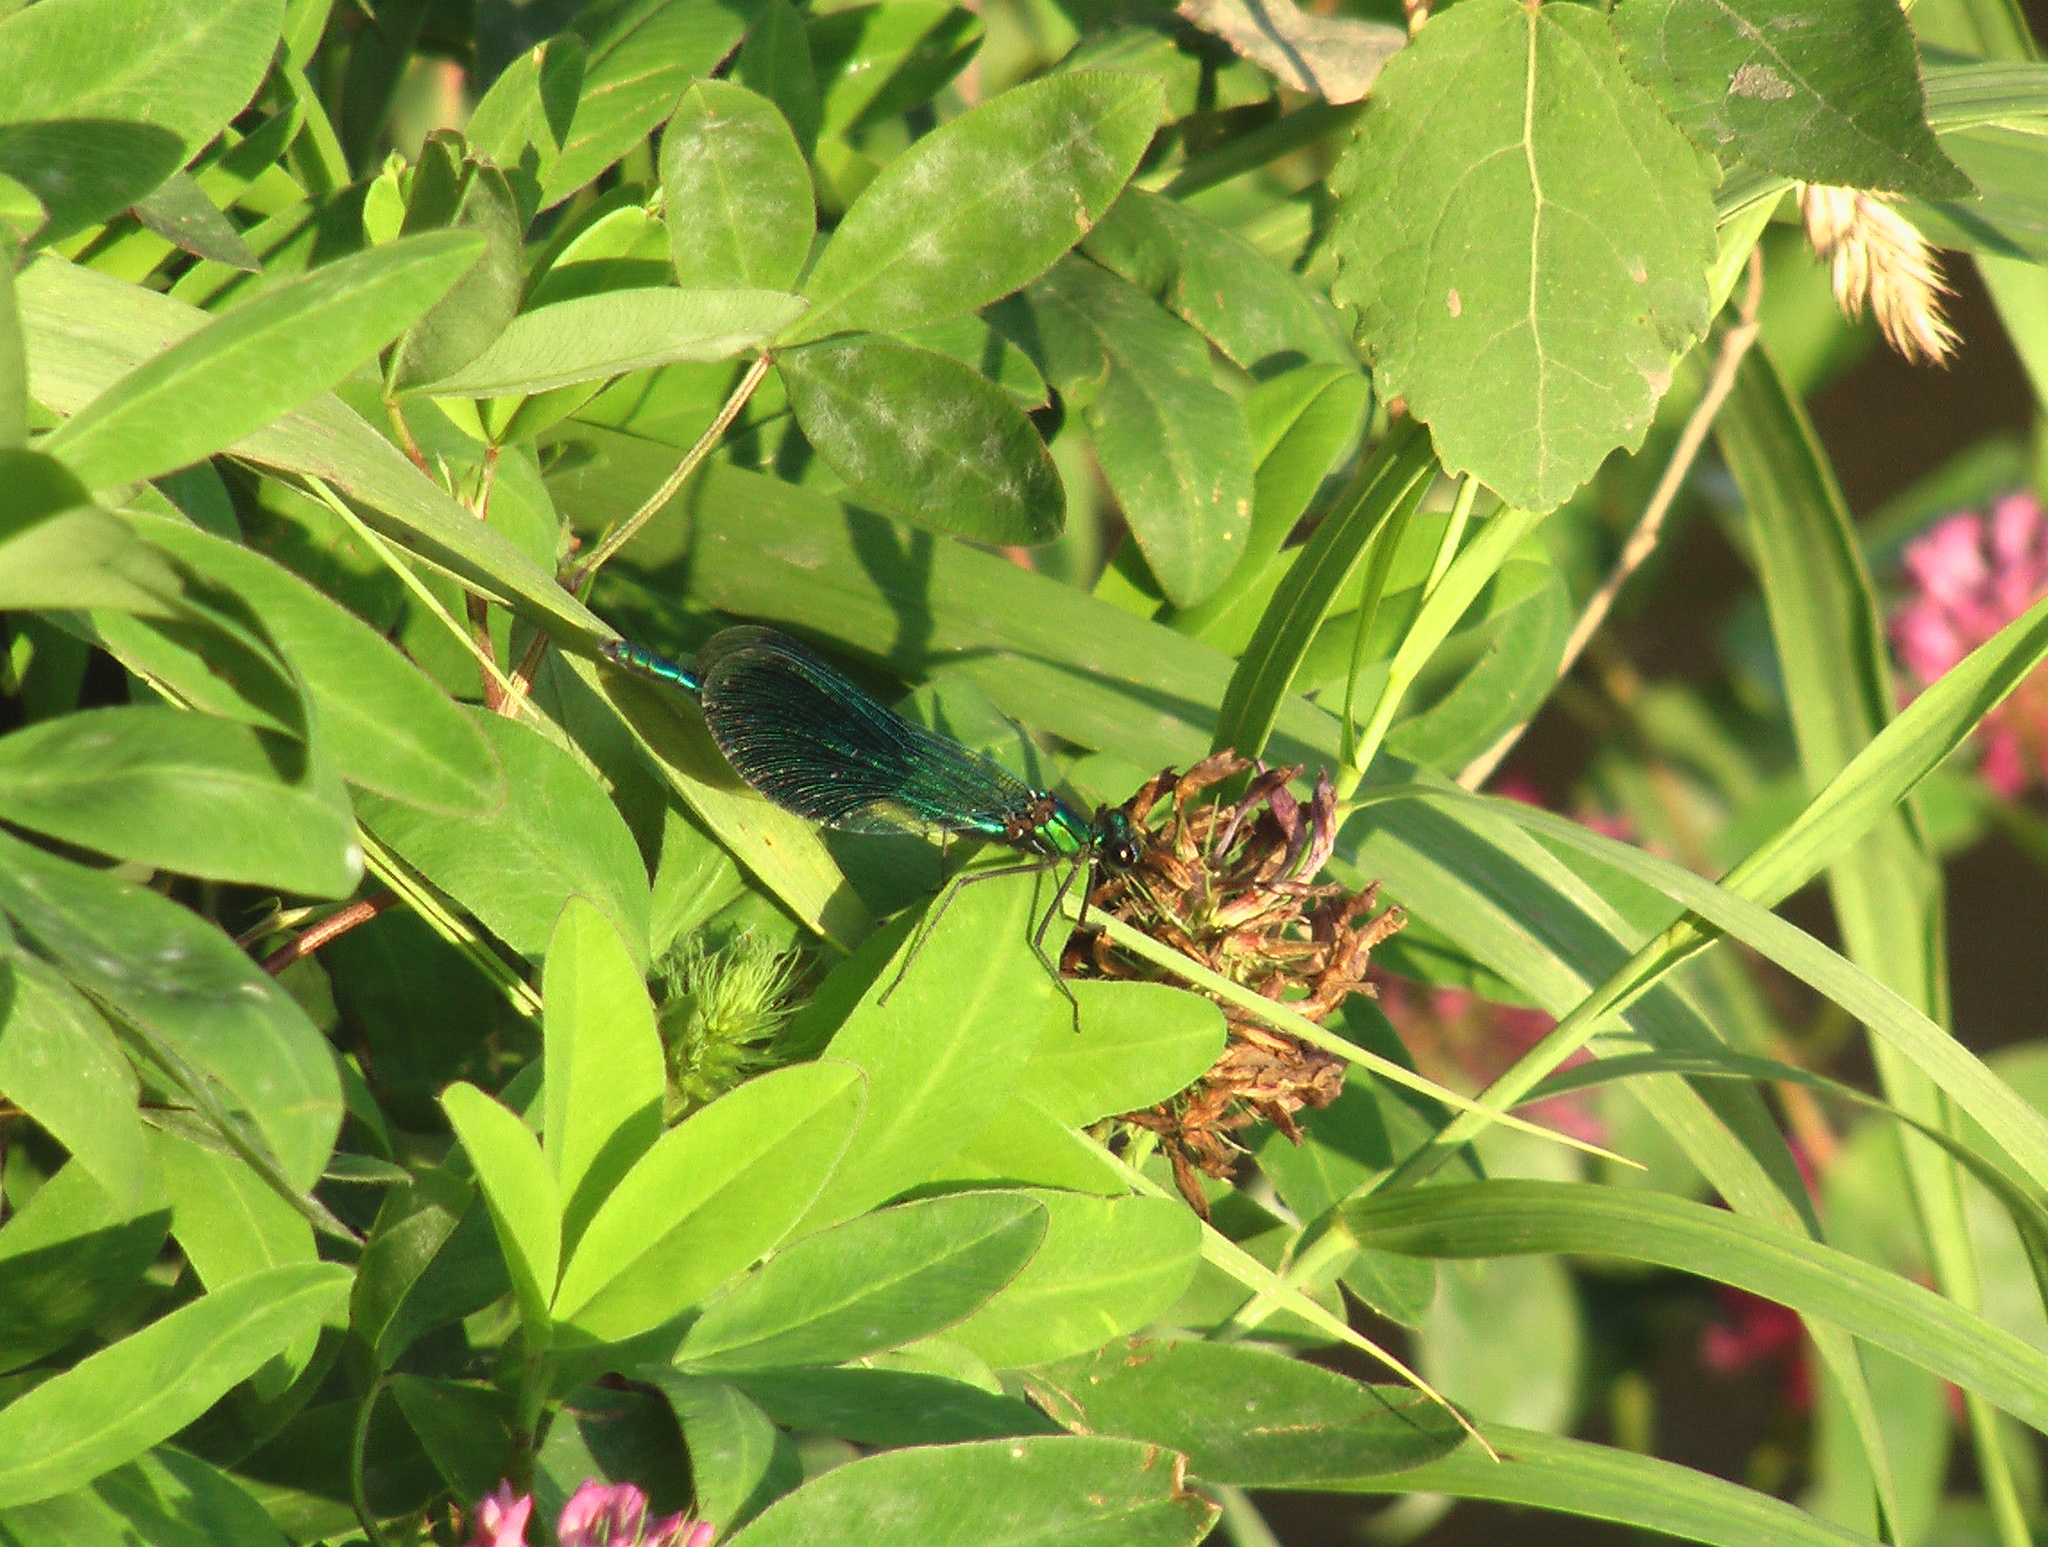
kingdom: Animalia
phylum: Arthropoda
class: Insecta
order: Odonata
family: Calopterygidae
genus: Calopteryx
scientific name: Calopteryx splendens
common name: Banded demoiselle
